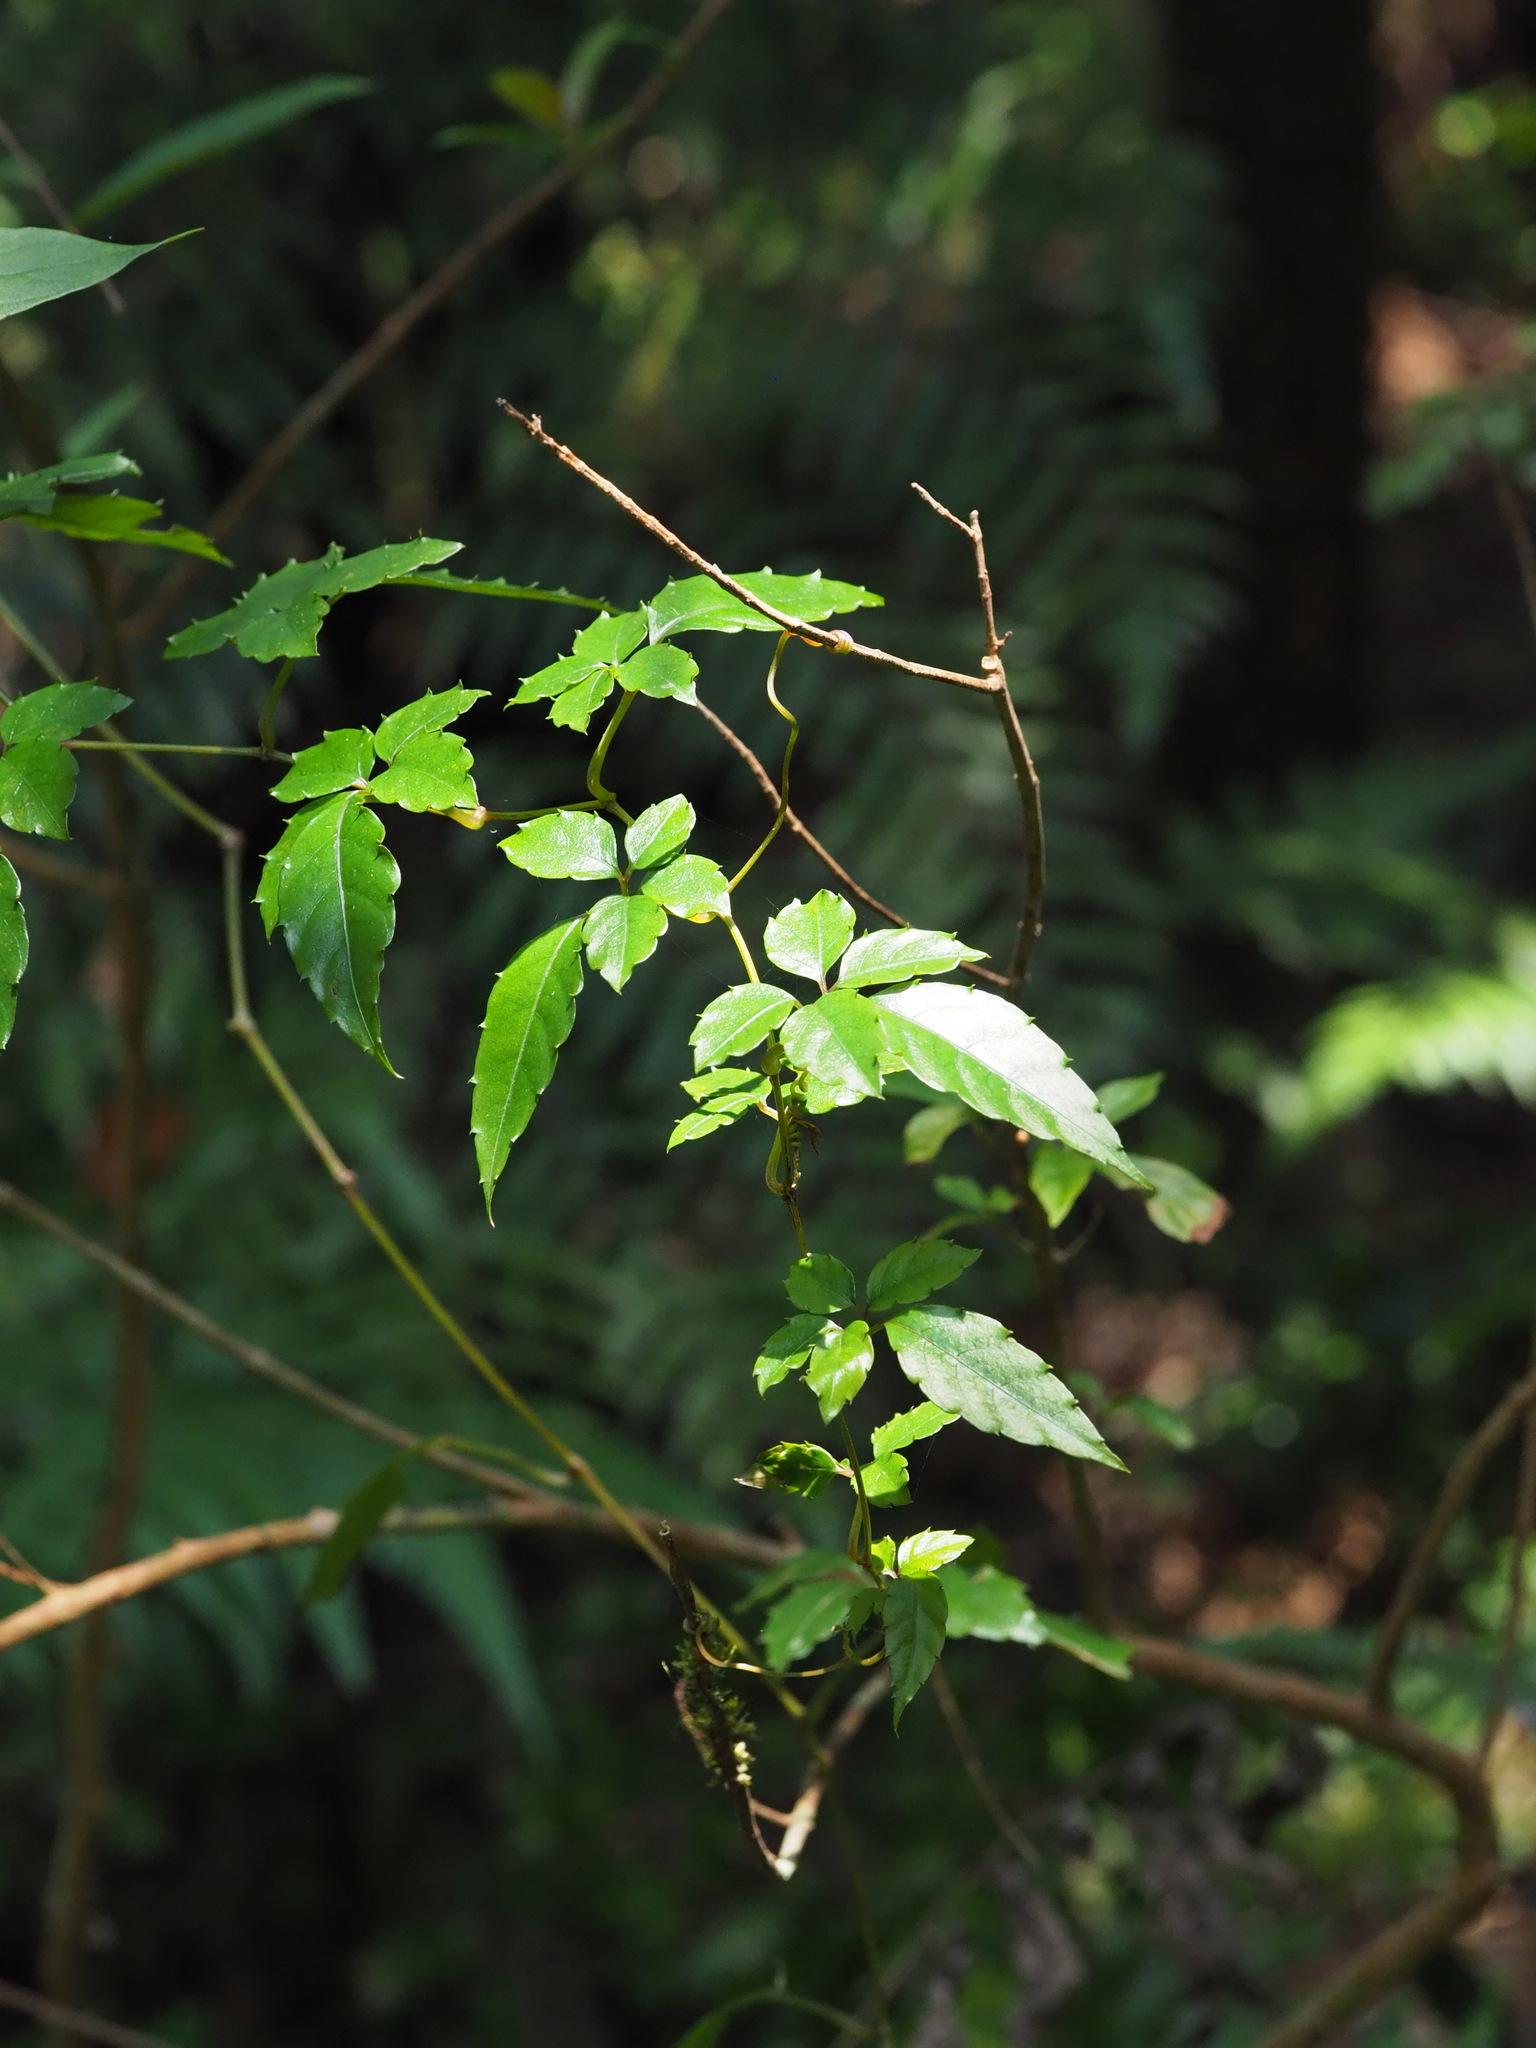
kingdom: Plantae
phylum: Tracheophyta
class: Magnoliopsida
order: Vitales
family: Vitaceae
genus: Causonis
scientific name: Causonis corniculata
